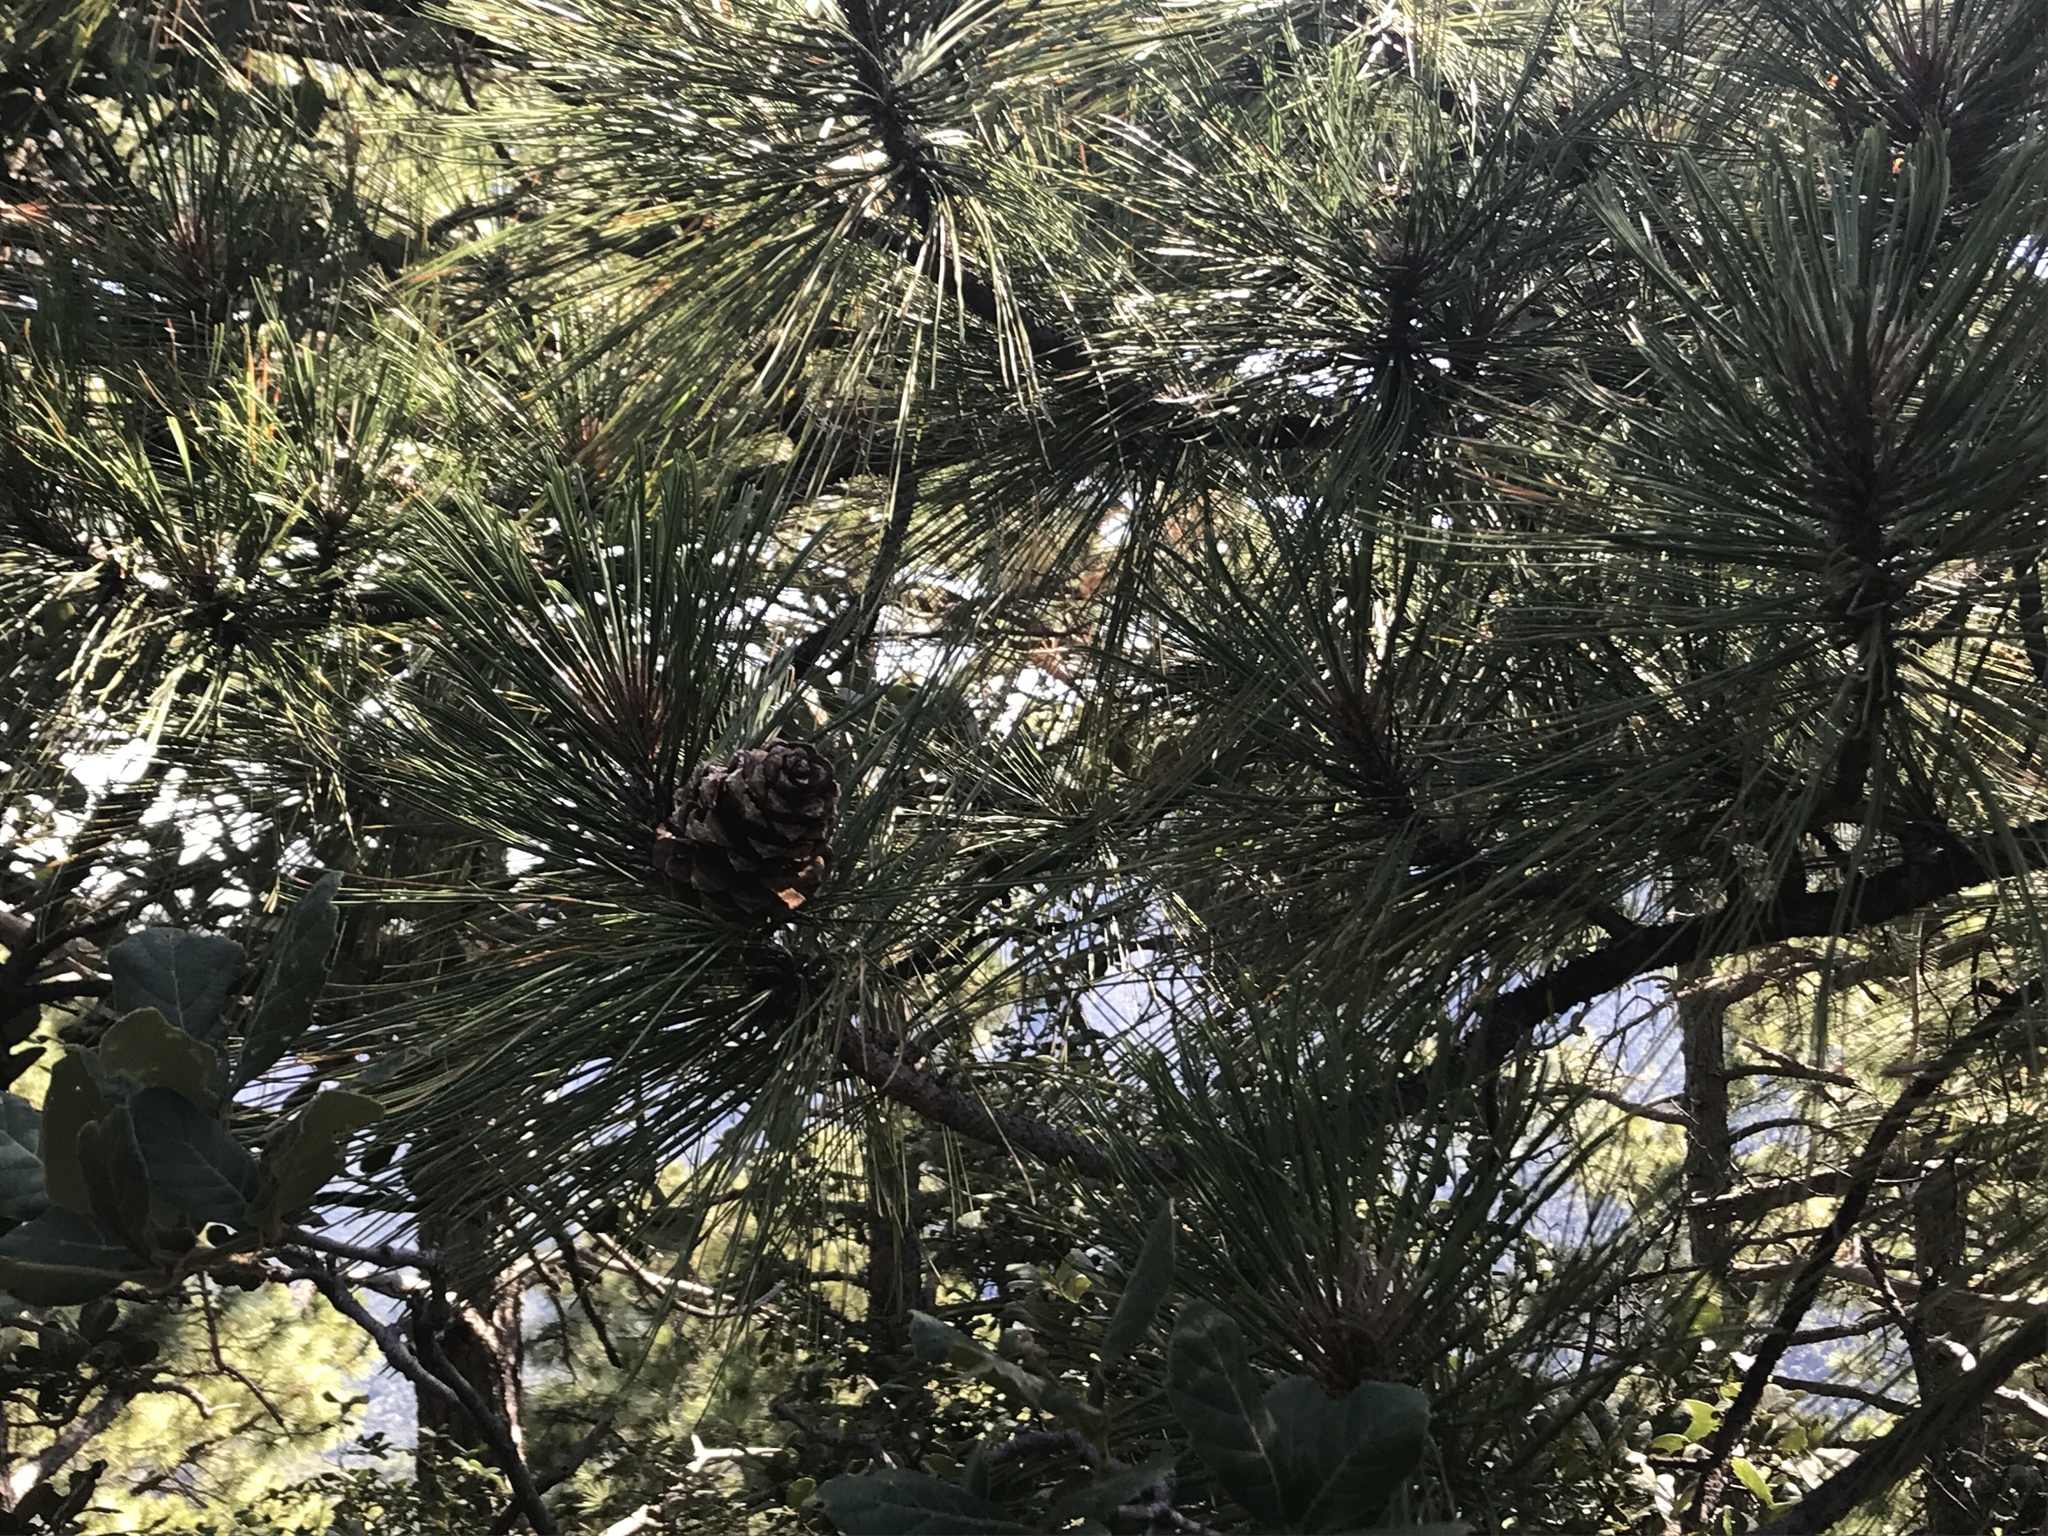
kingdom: Plantae
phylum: Tracheophyta
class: Pinopsida
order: Pinales
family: Pinaceae
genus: Pinus
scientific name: Pinus arizonica
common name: Arizona pine
